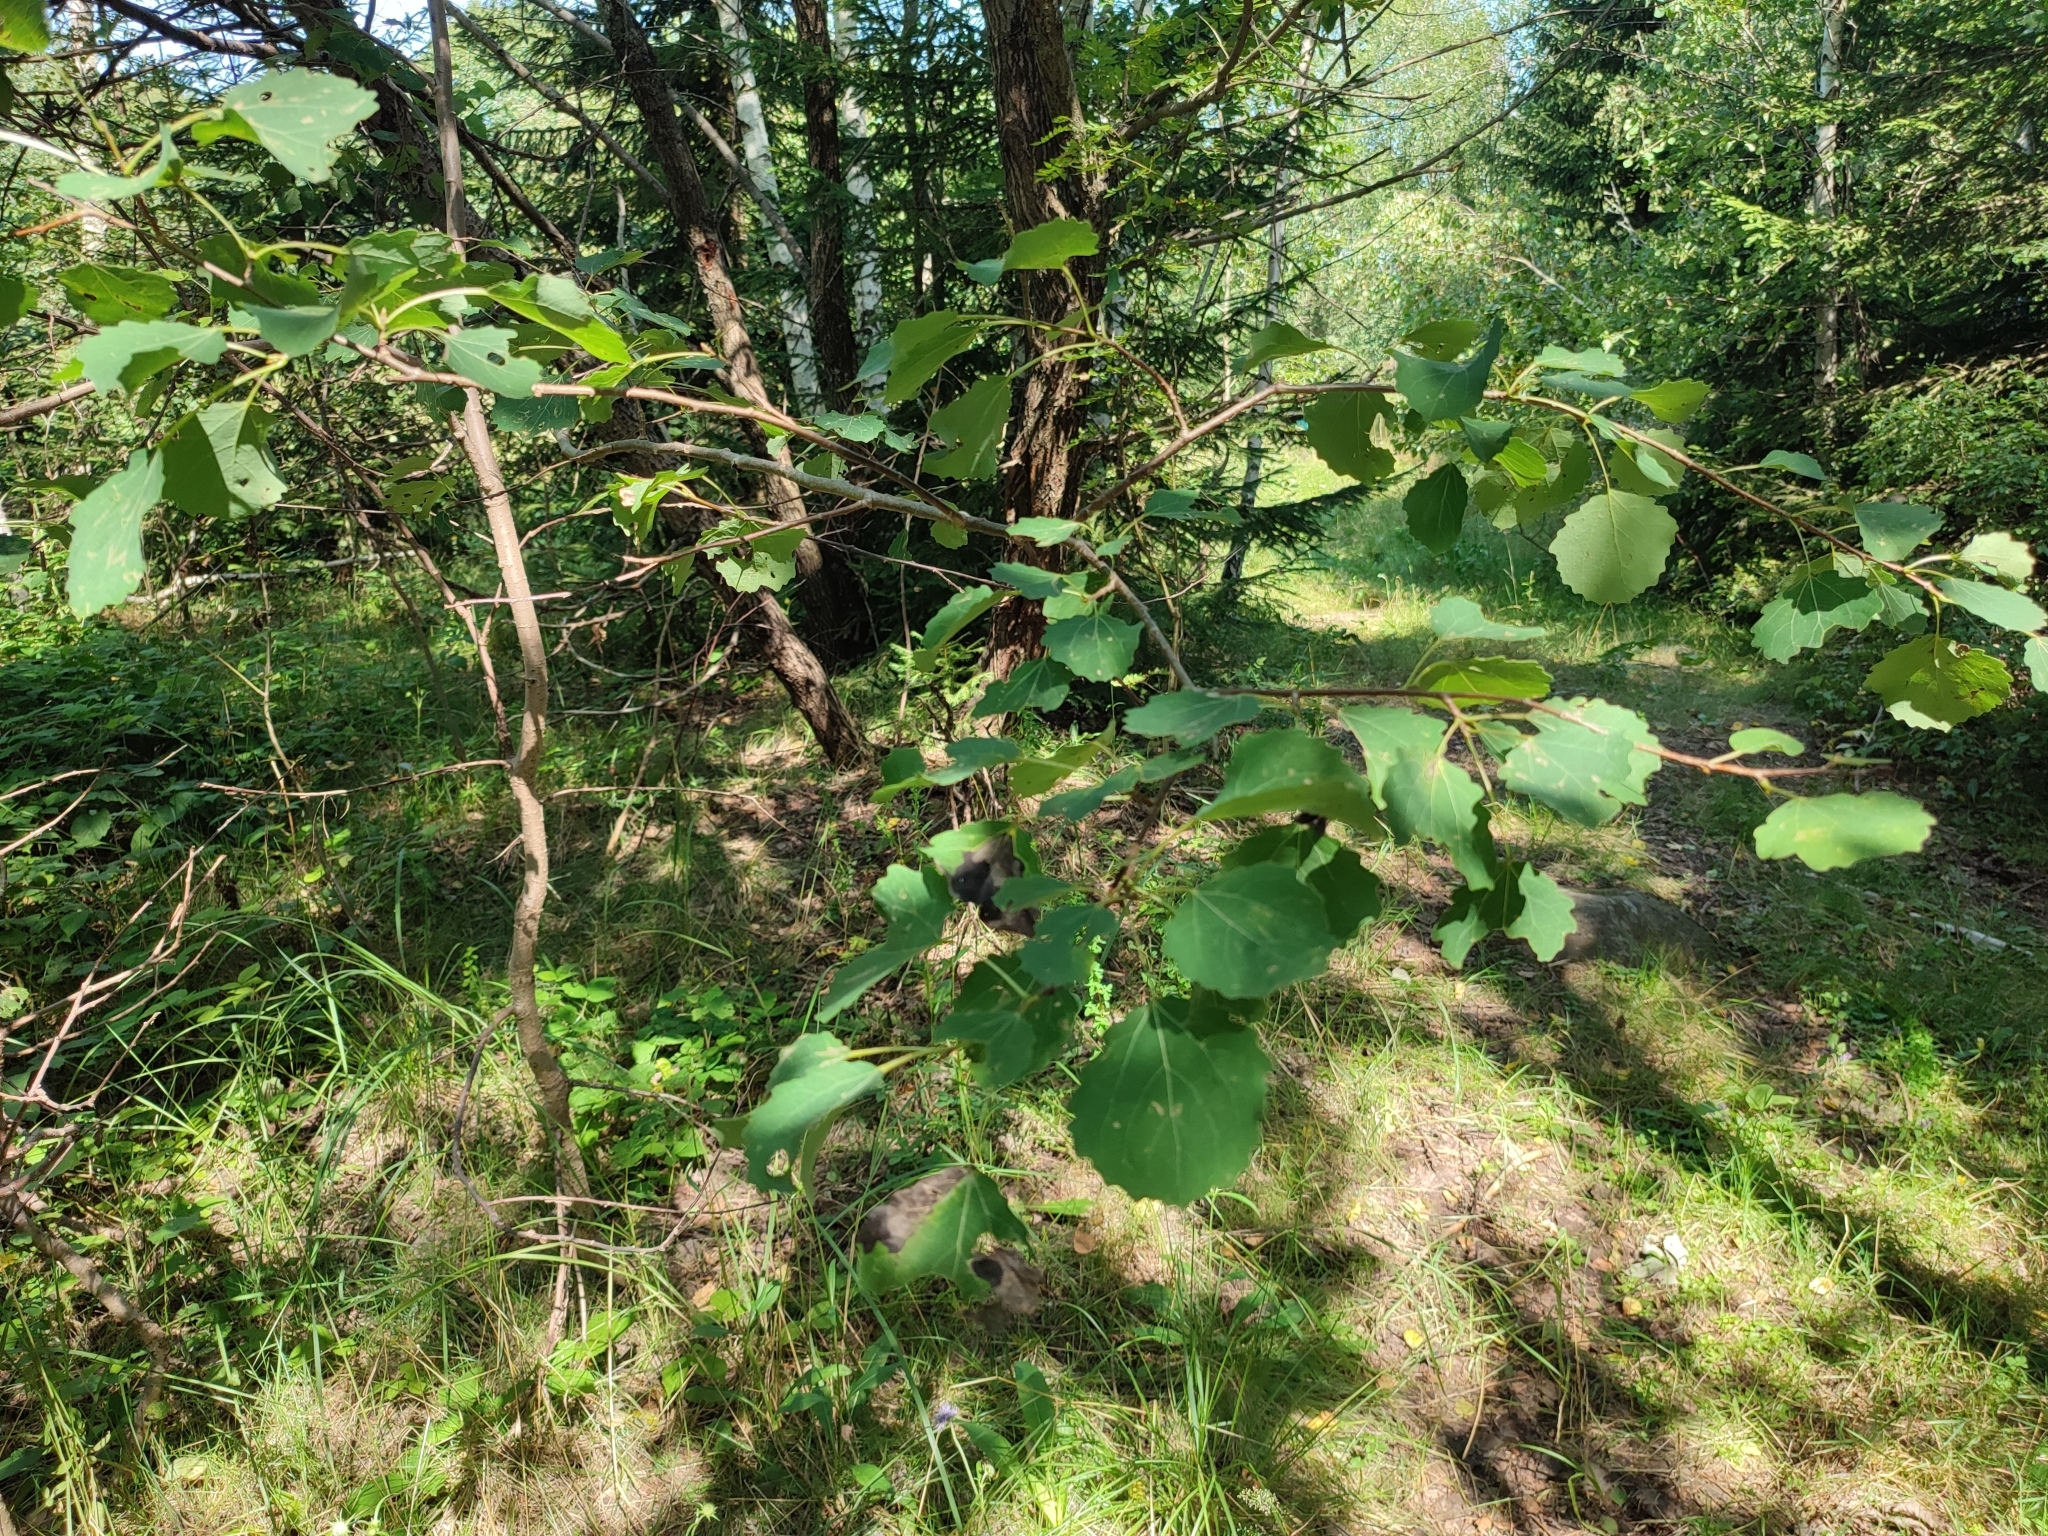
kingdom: Plantae
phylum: Tracheophyta
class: Magnoliopsida
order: Malpighiales
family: Salicaceae
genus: Populus
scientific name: Populus tremula
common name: European aspen
